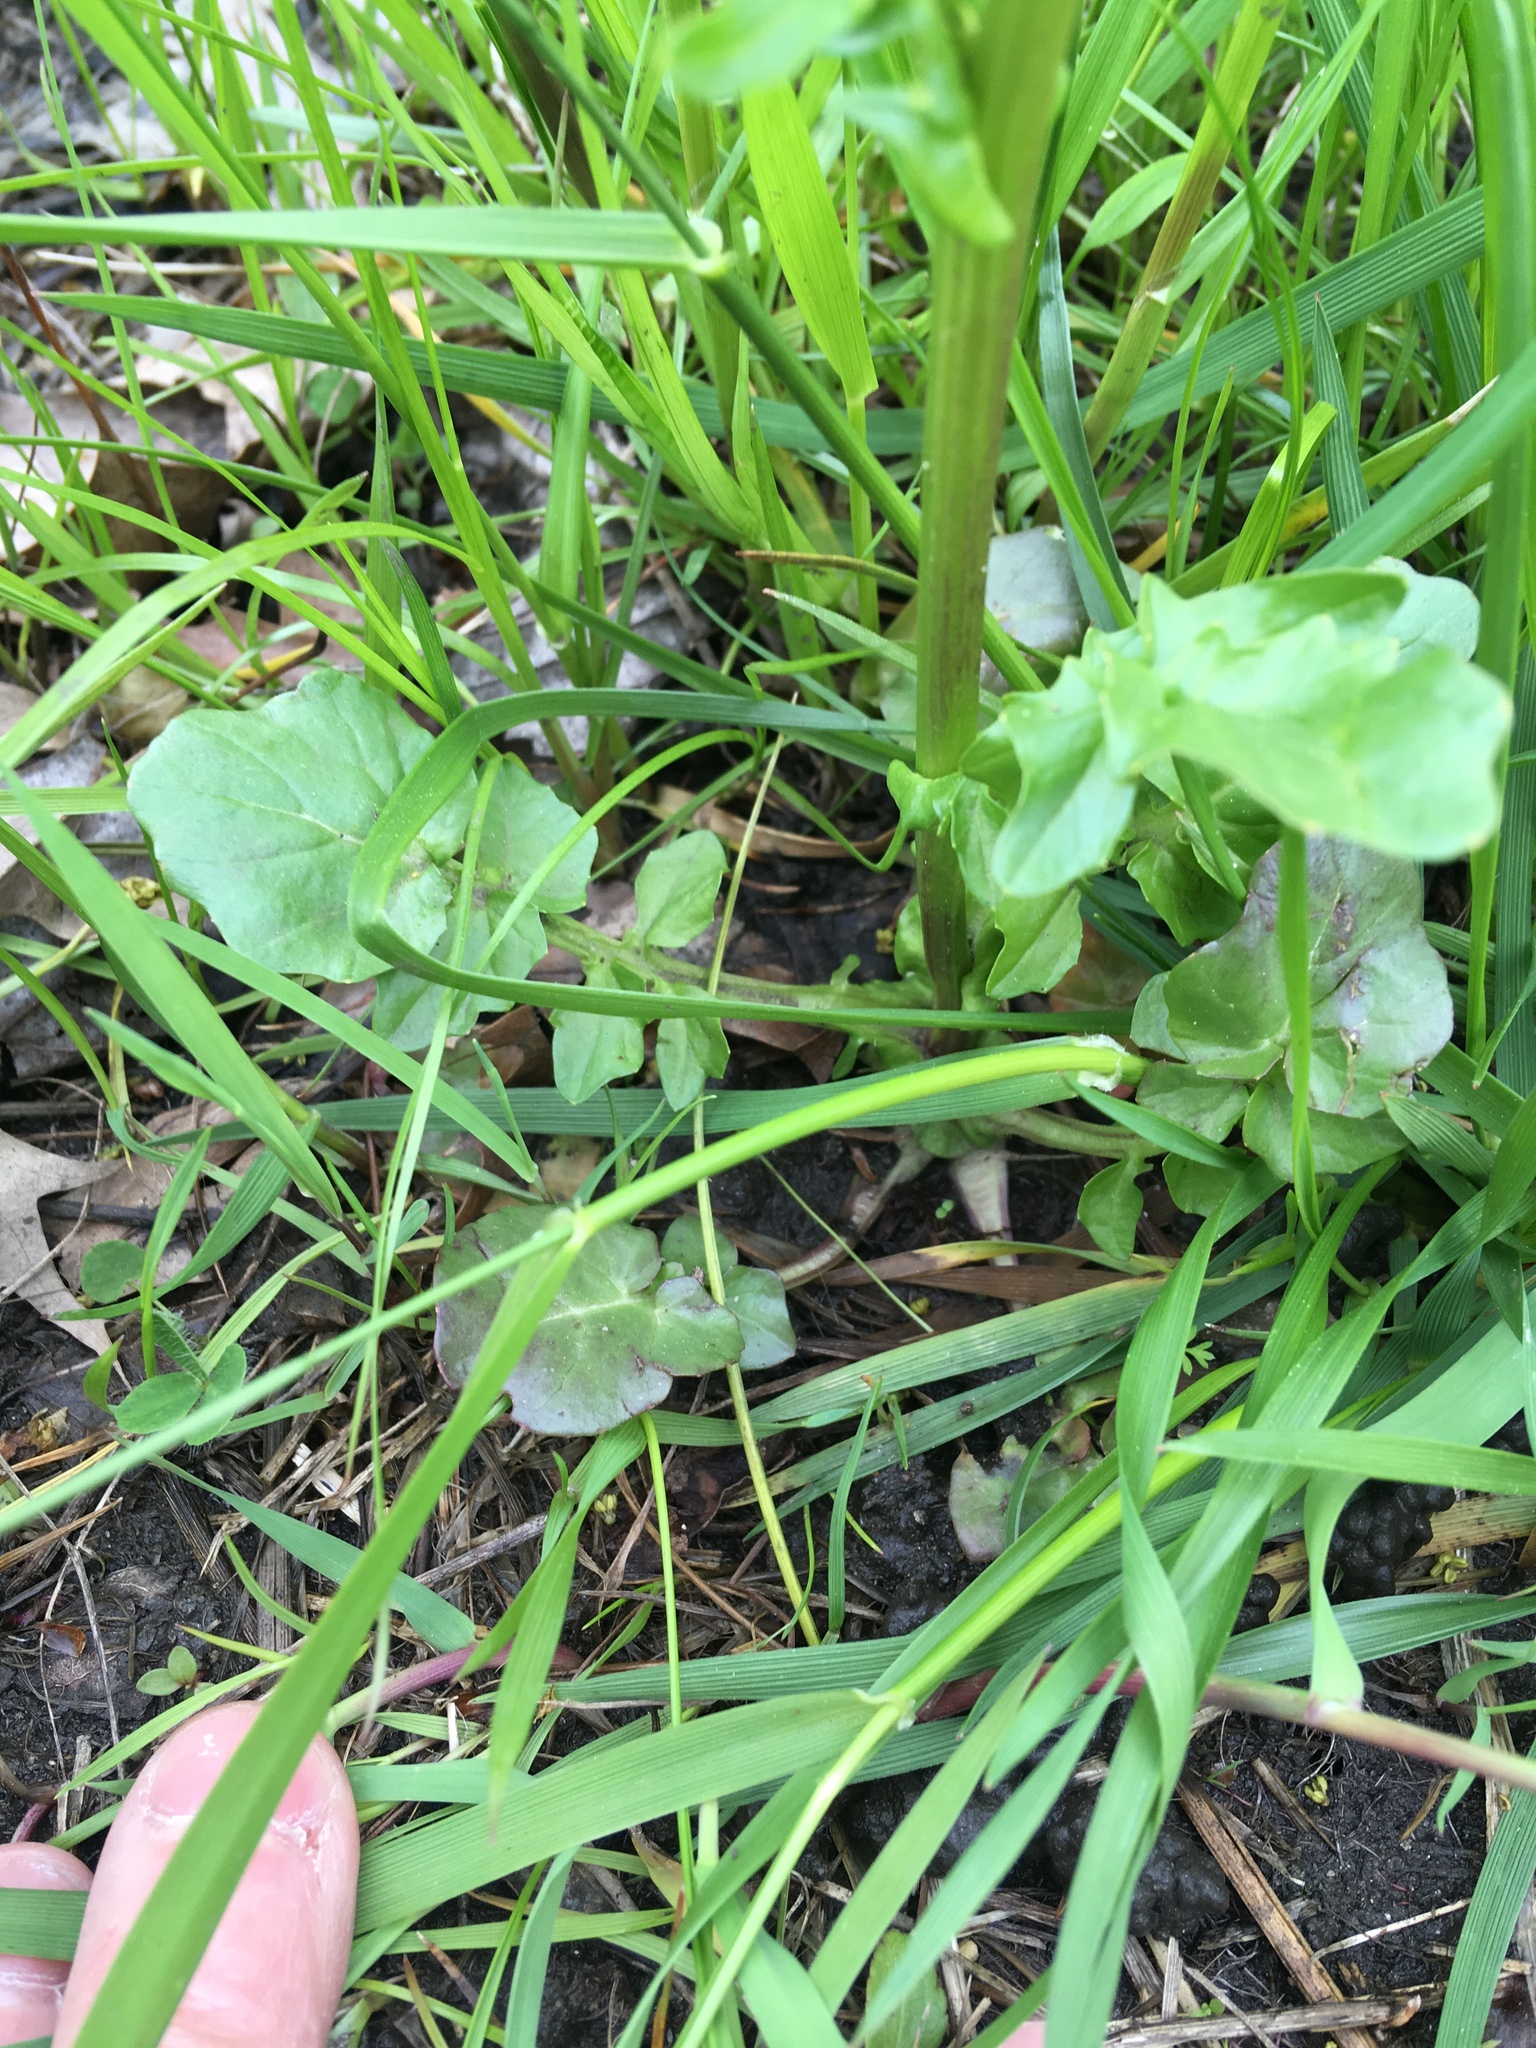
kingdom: Plantae
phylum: Tracheophyta
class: Magnoliopsida
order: Brassicales
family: Brassicaceae
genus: Barbarea
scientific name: Barbarea vulgaris
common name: Cressy-greens
